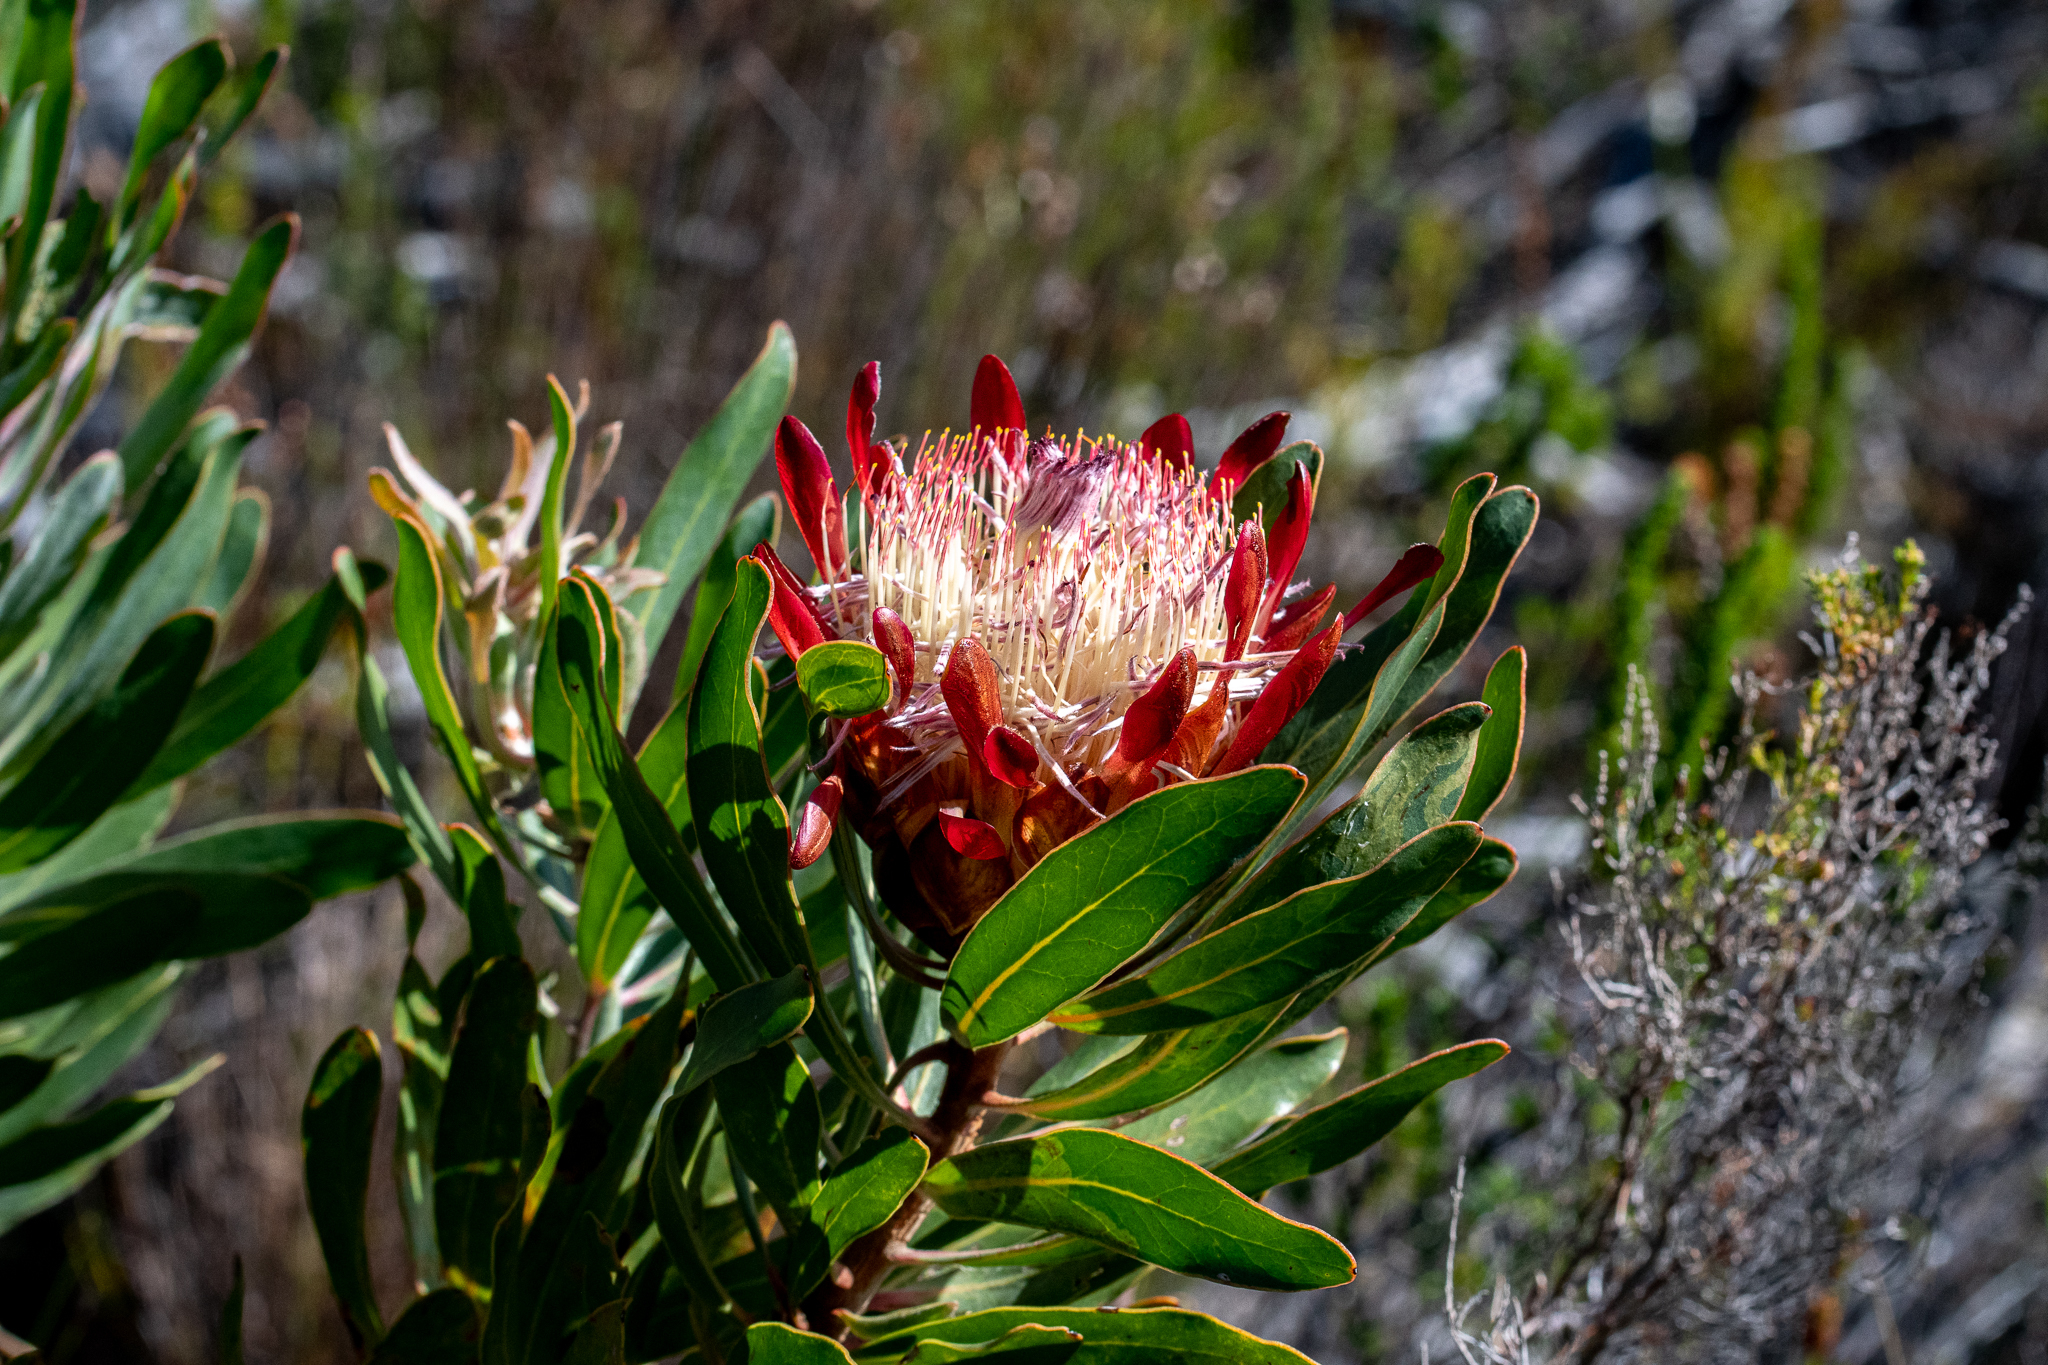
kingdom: Plantae
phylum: Tracheophyta
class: Magnoliopsida
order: Proteales
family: Proteaceae
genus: Protea
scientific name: Protea susannae
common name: Foetid-leaf sugarbush
